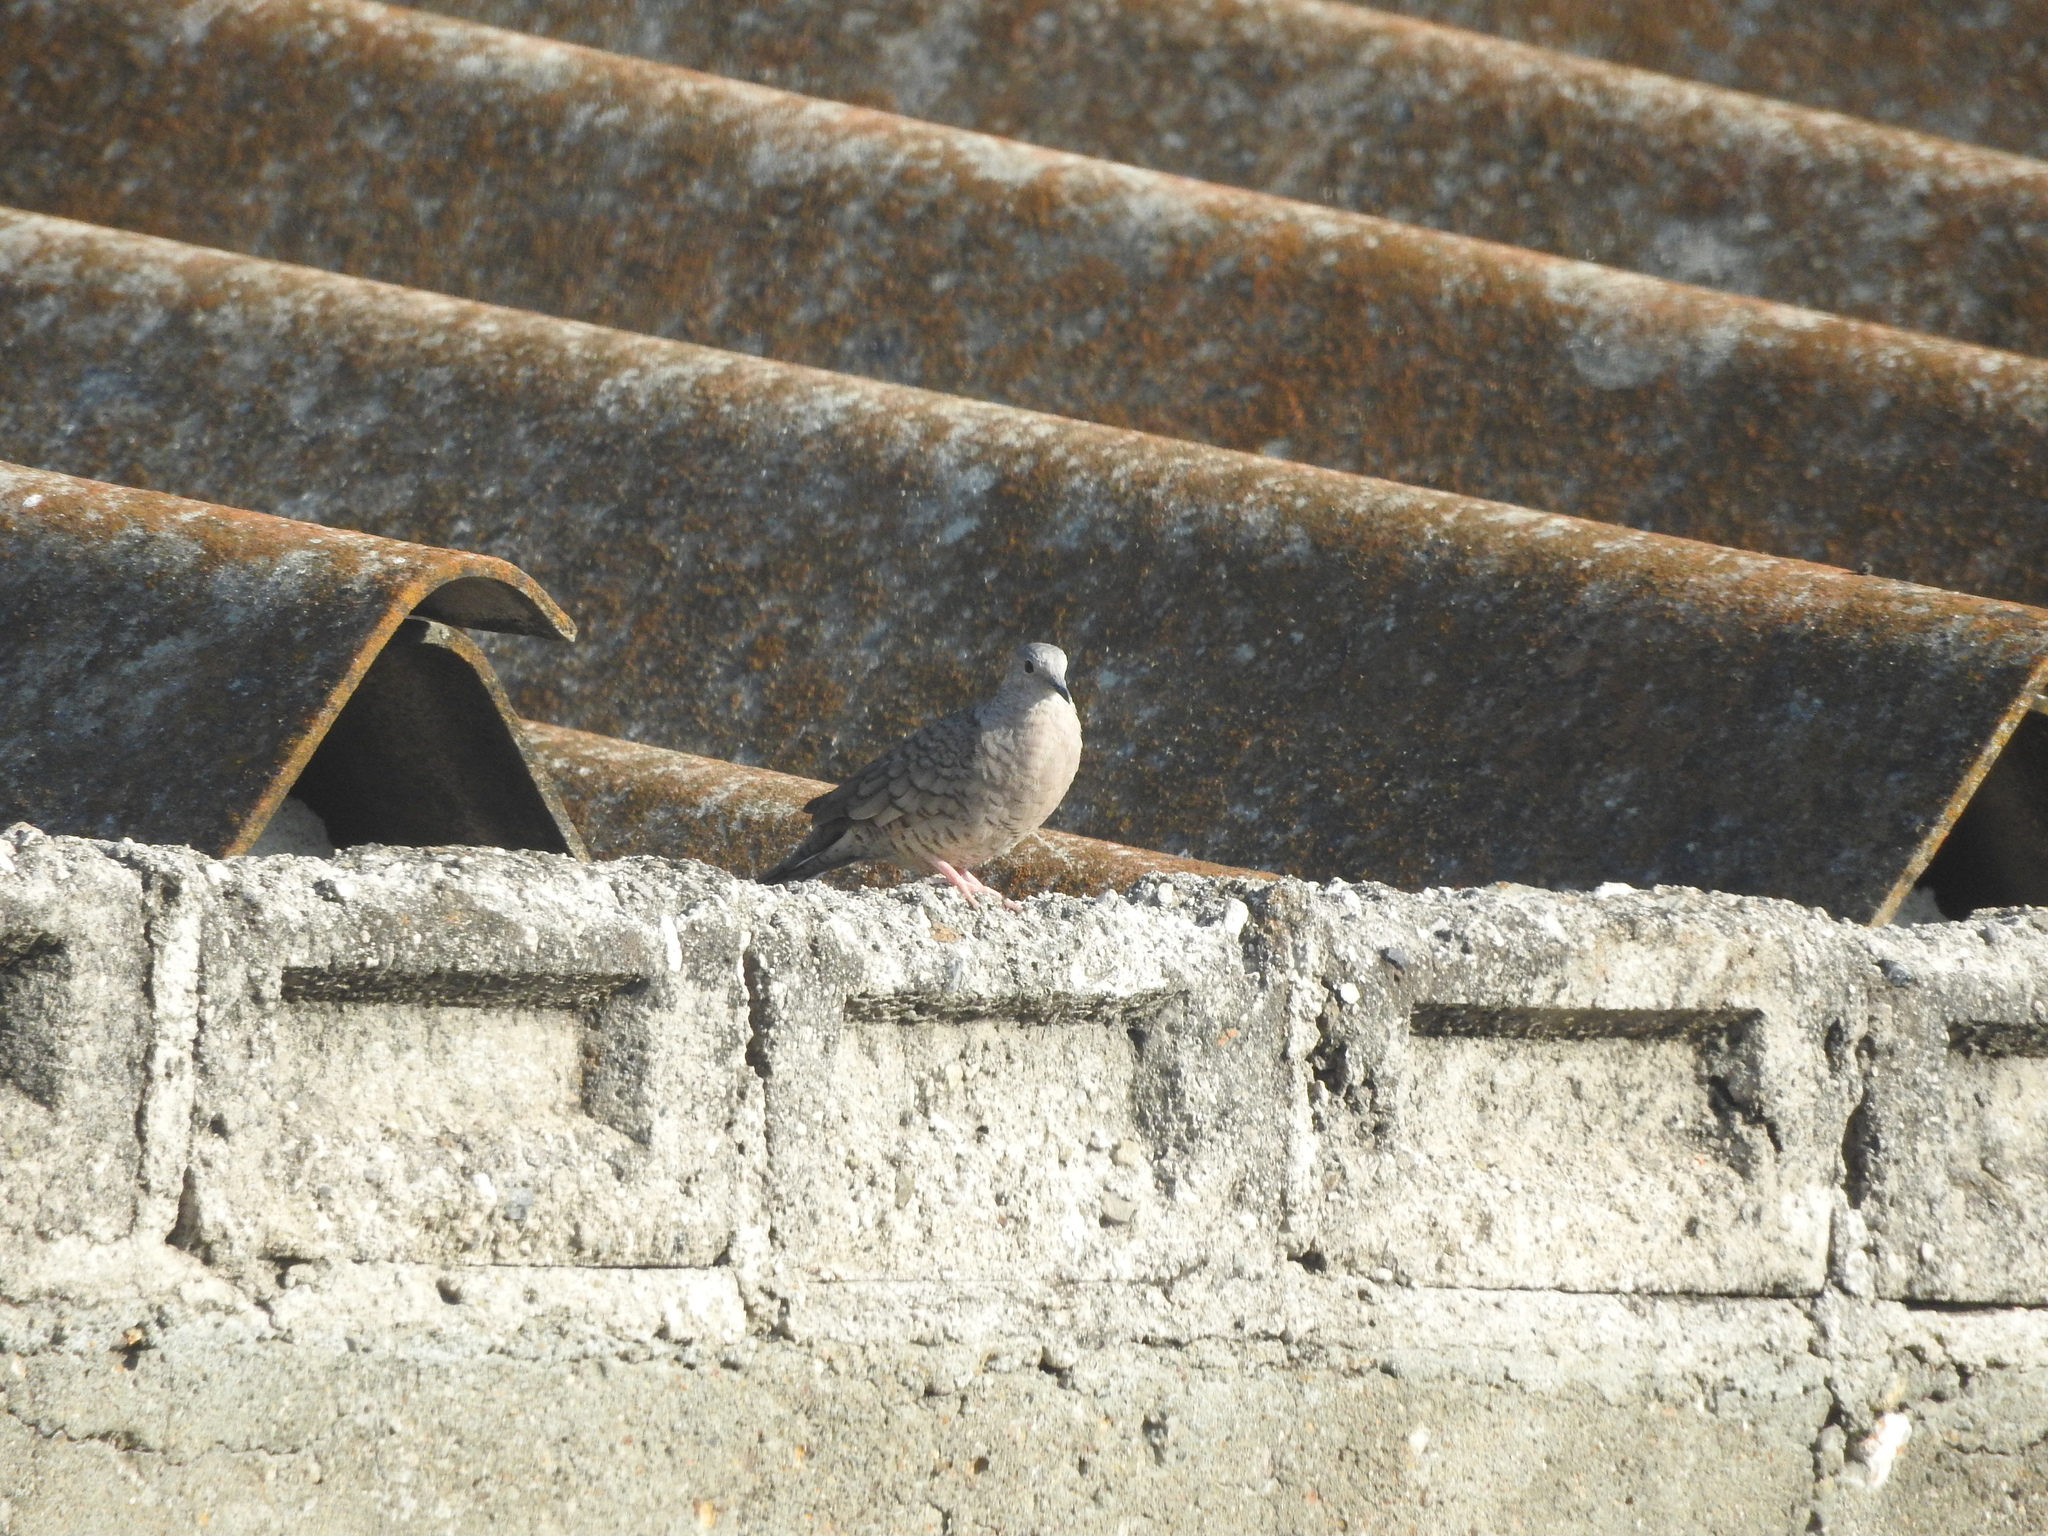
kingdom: Animalia
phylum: Chordata
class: Aves
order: Columbiformes
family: Columbidae
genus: Columbina
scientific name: Columbina inca
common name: Inca dove
